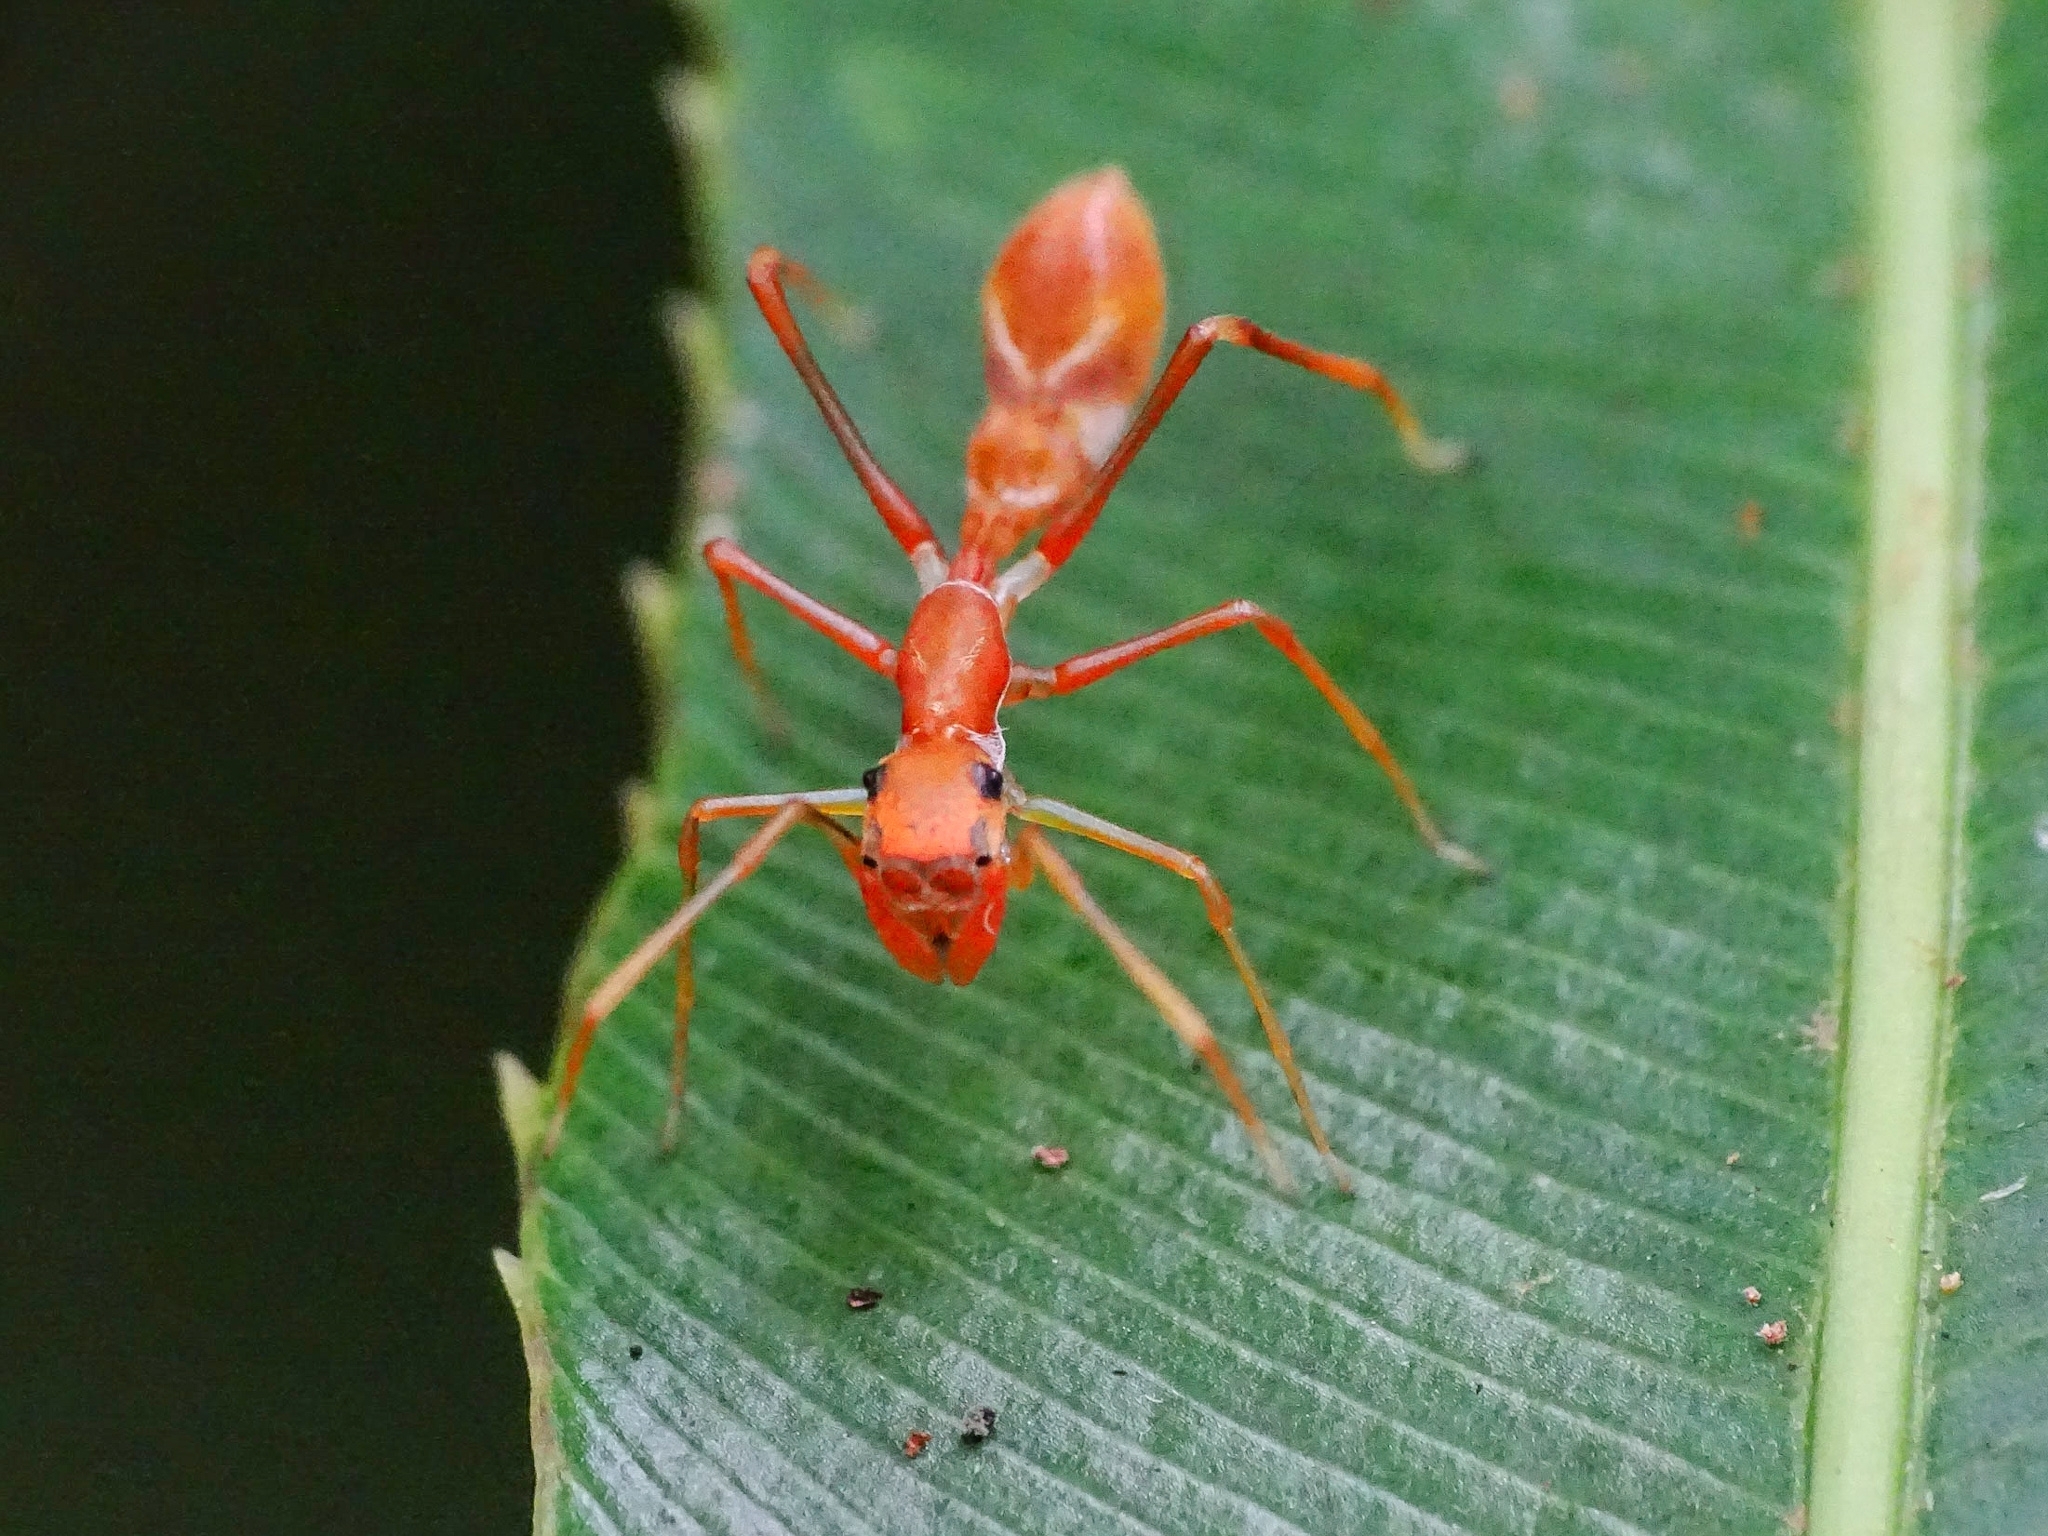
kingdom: Animalia
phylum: Arthropoda
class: Arachnida
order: Araneae
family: Salticidae
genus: Myrmaplata
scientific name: Myrmaplata plataleoides
